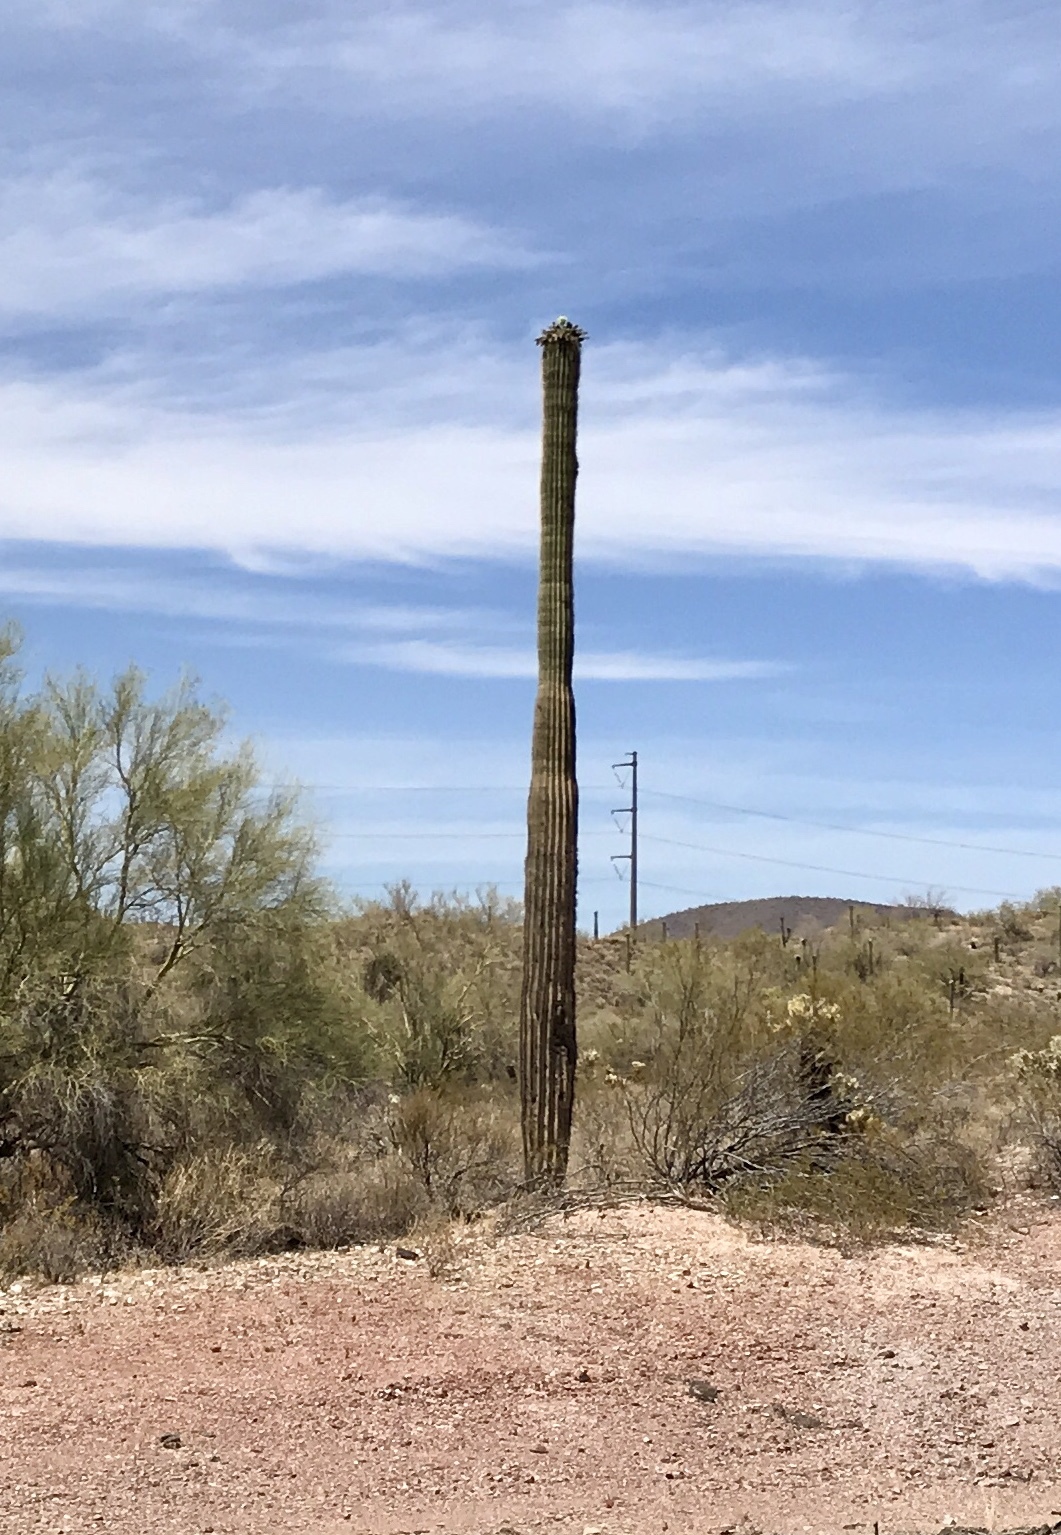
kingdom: Plantae
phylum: Tracheophyta
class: Magnoliopsida
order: Caryophyllales
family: Cactaceae
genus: Carnegiea
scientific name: Carnegiea gigantea
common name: Saguaro
